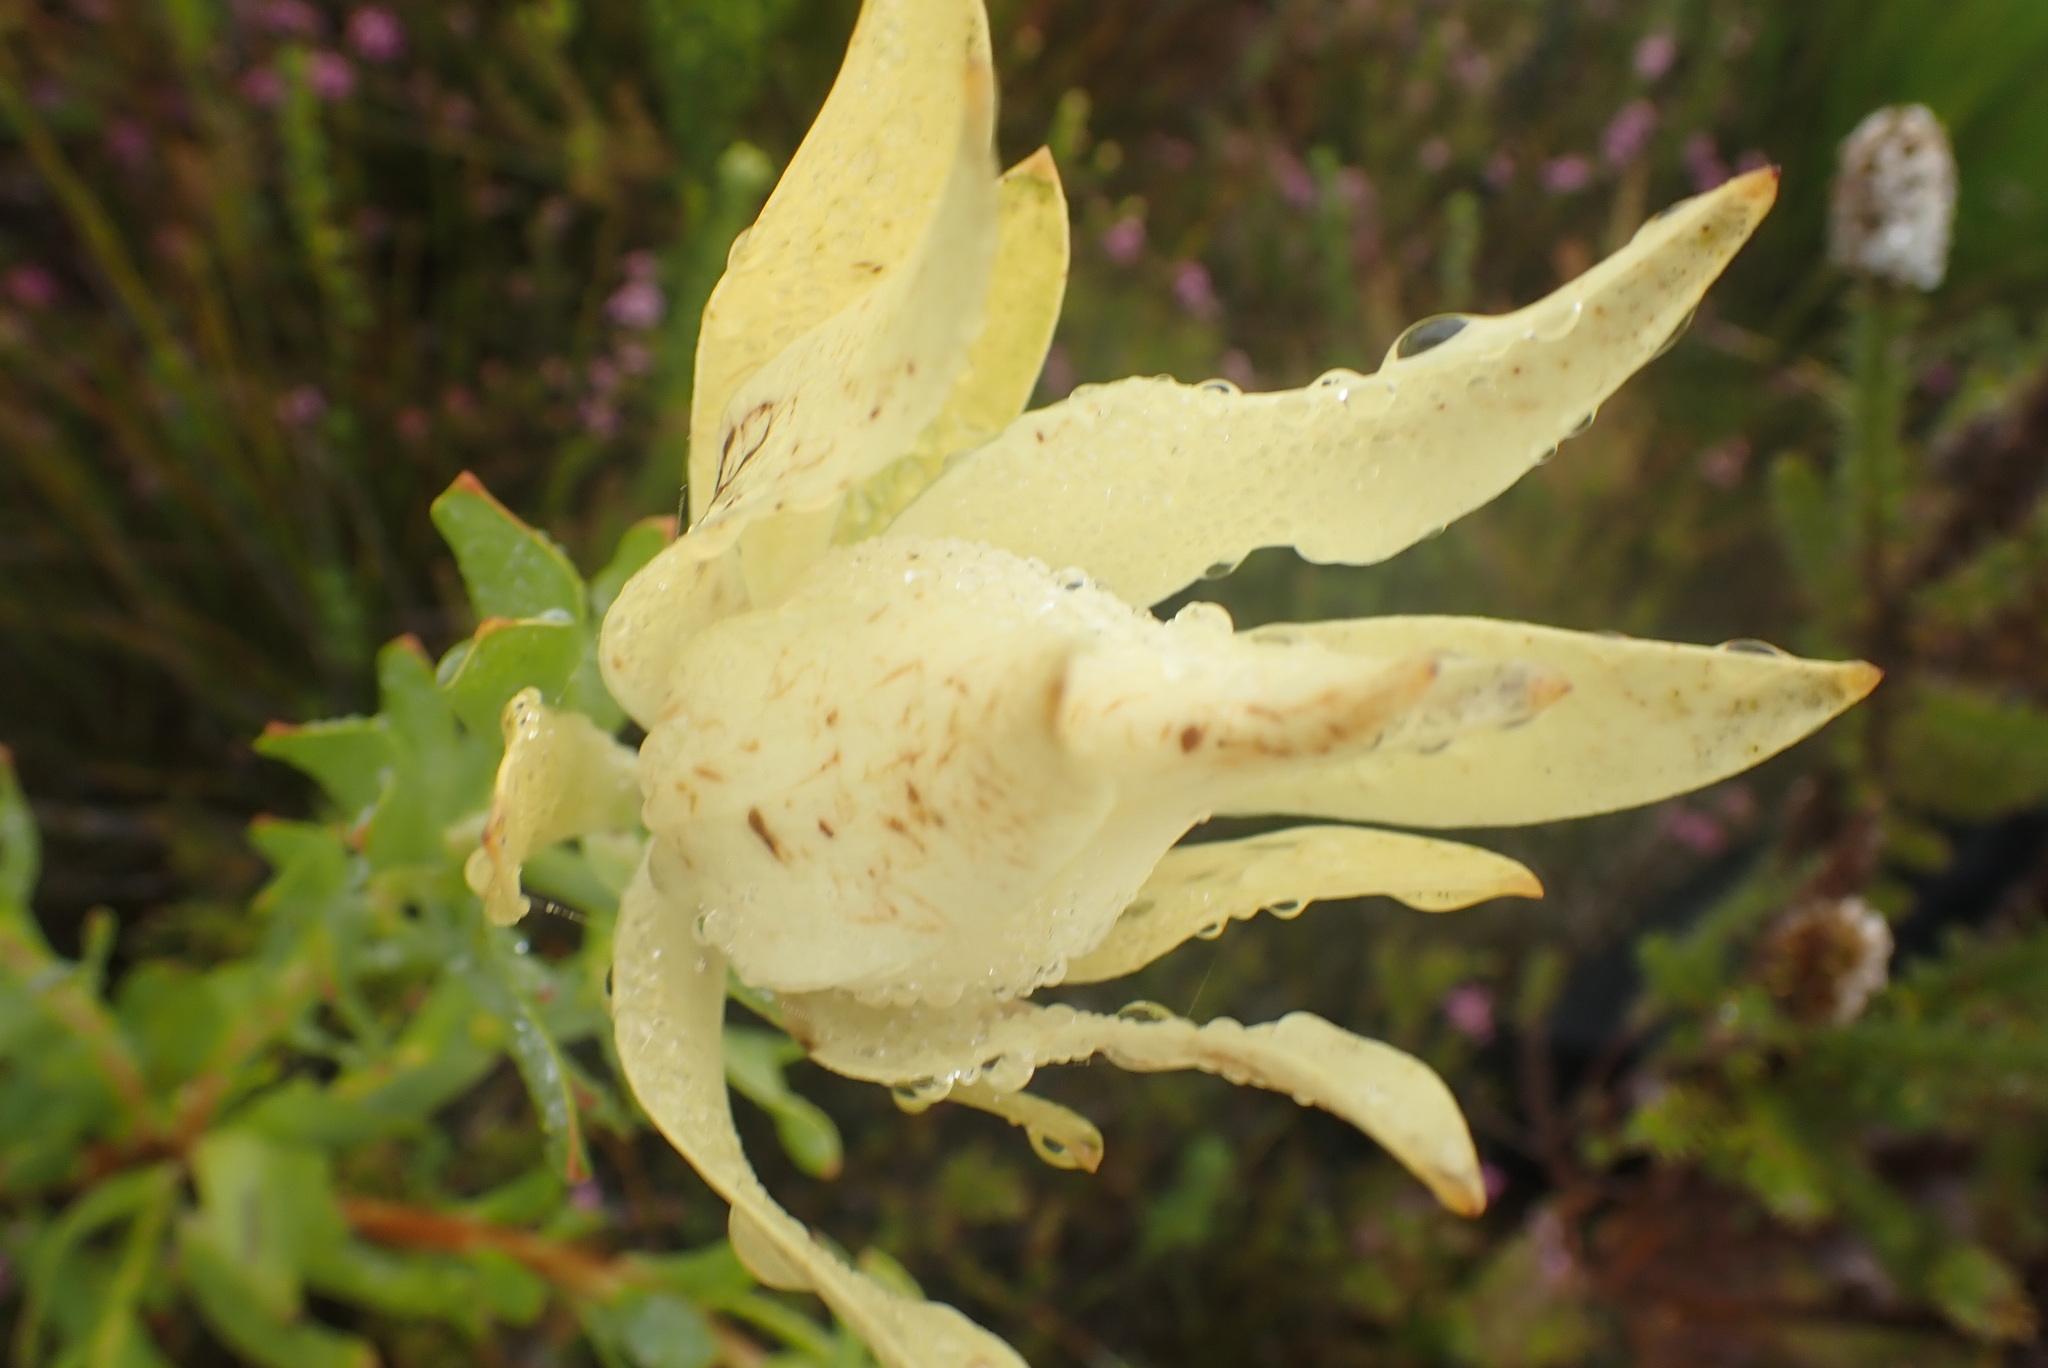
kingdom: Plantae
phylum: Tracheophyta
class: Magnoliopsida
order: Proteales
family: Proteaceae
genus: Leucadendron
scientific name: Leucadendron salignum
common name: Common sunshine conebush
